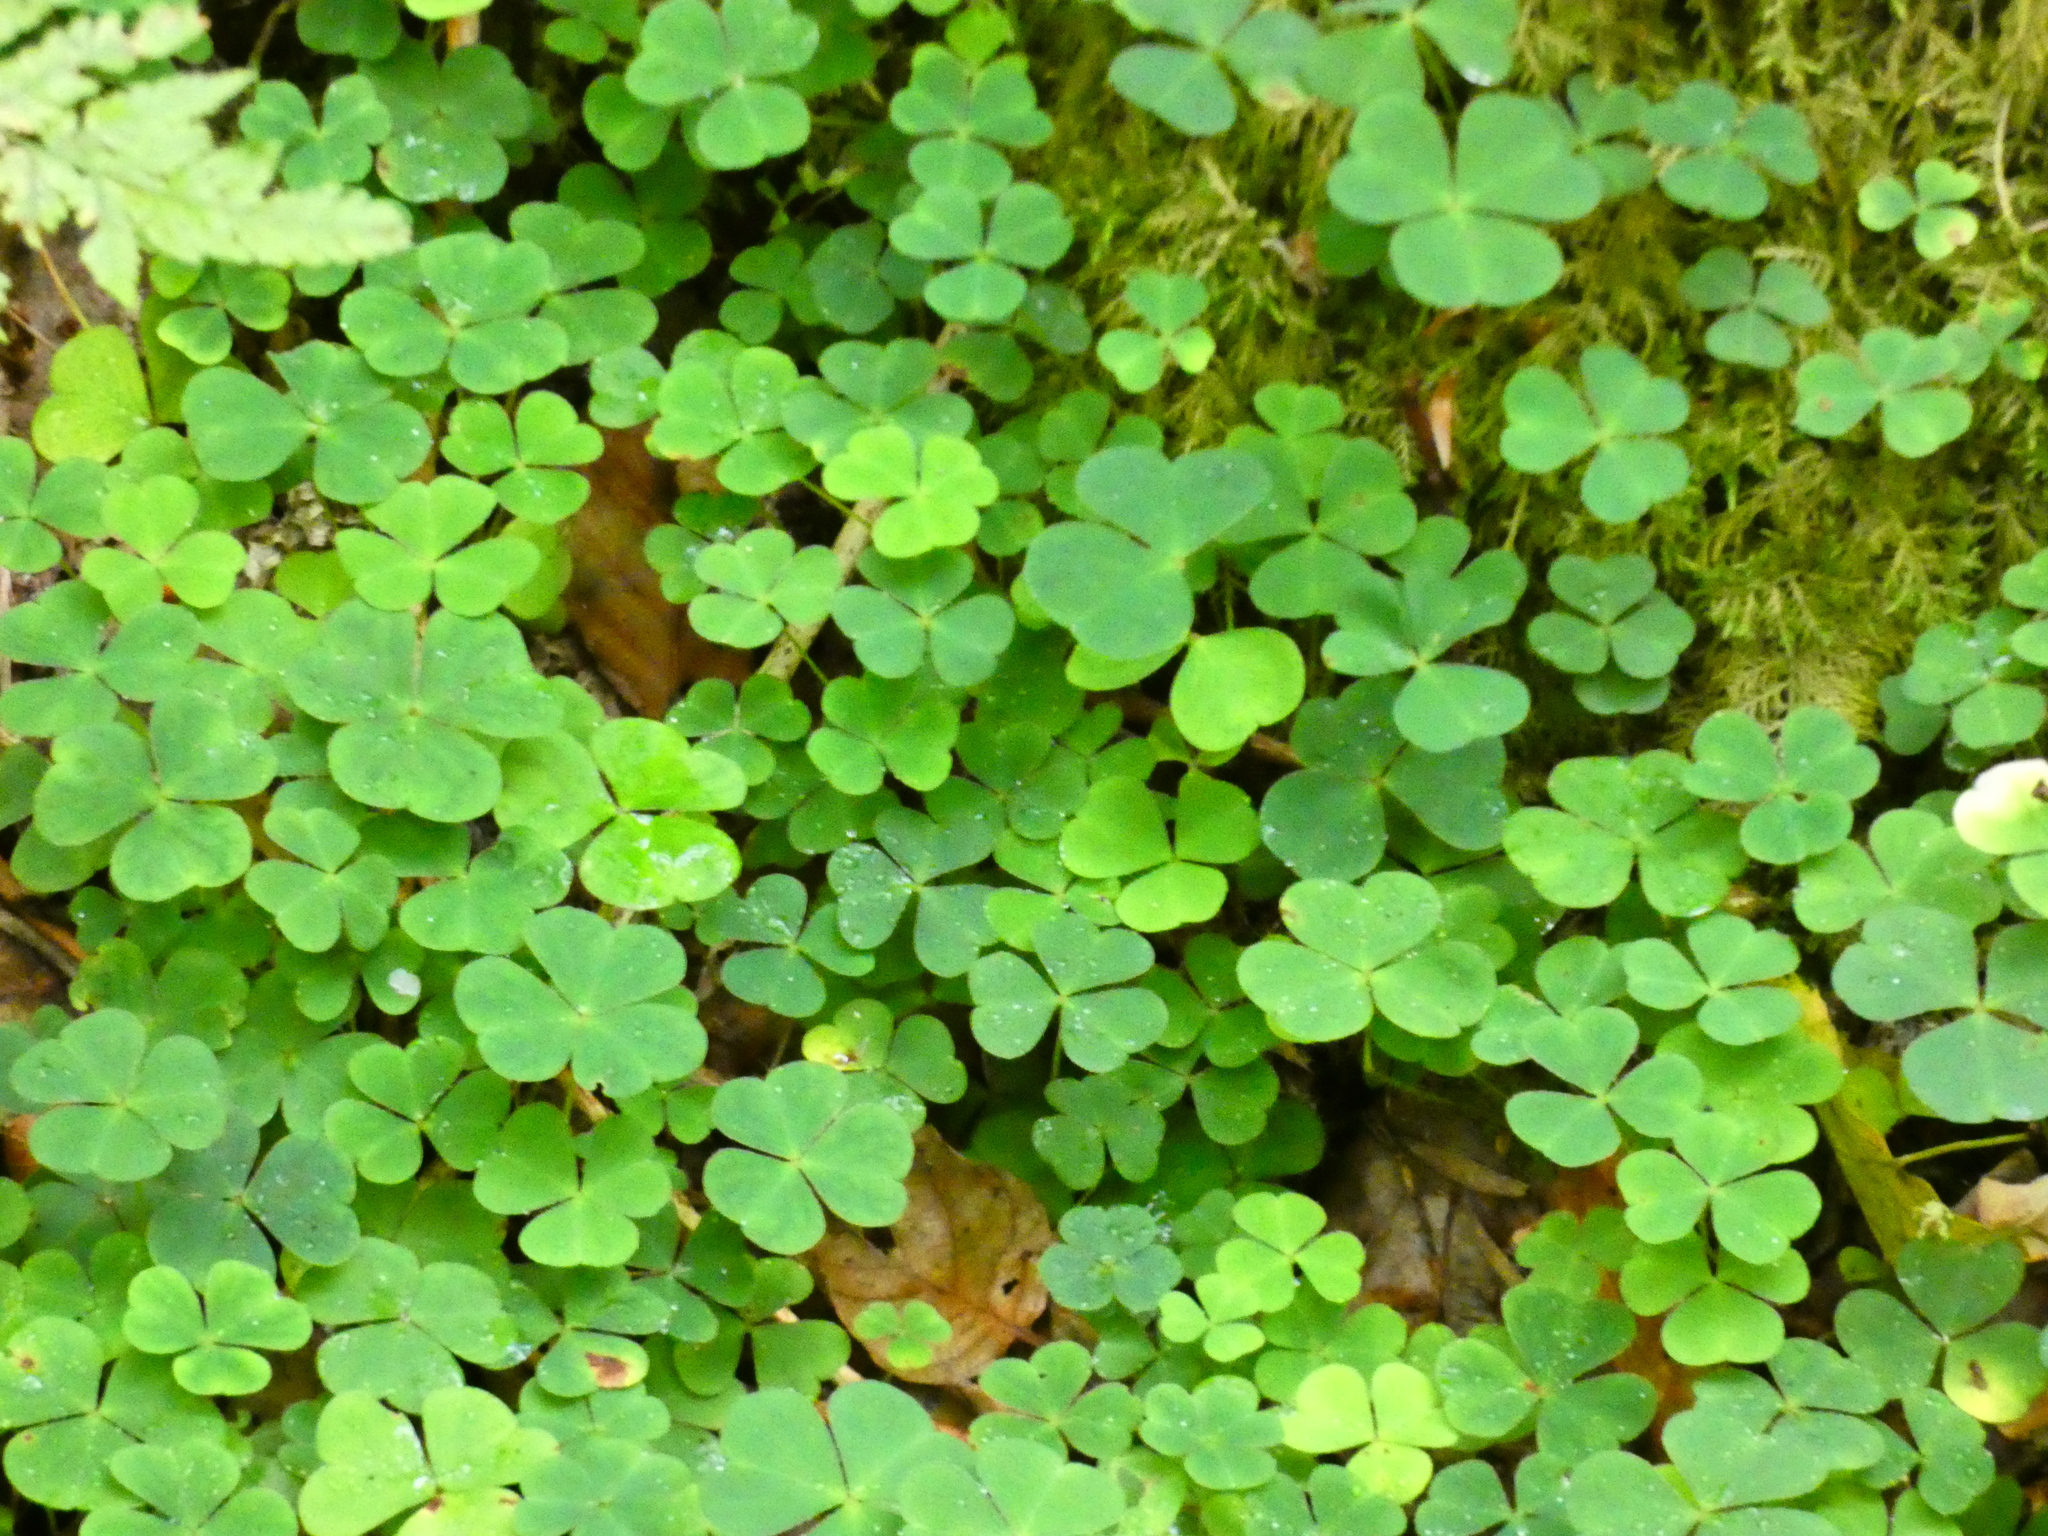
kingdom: Plantae
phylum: Tracheophyta
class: Magnoliopsida
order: Oxalidales
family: Oxalidaceae
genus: Oxalis
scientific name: Oxalis acetosella
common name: Wood-sorrel
